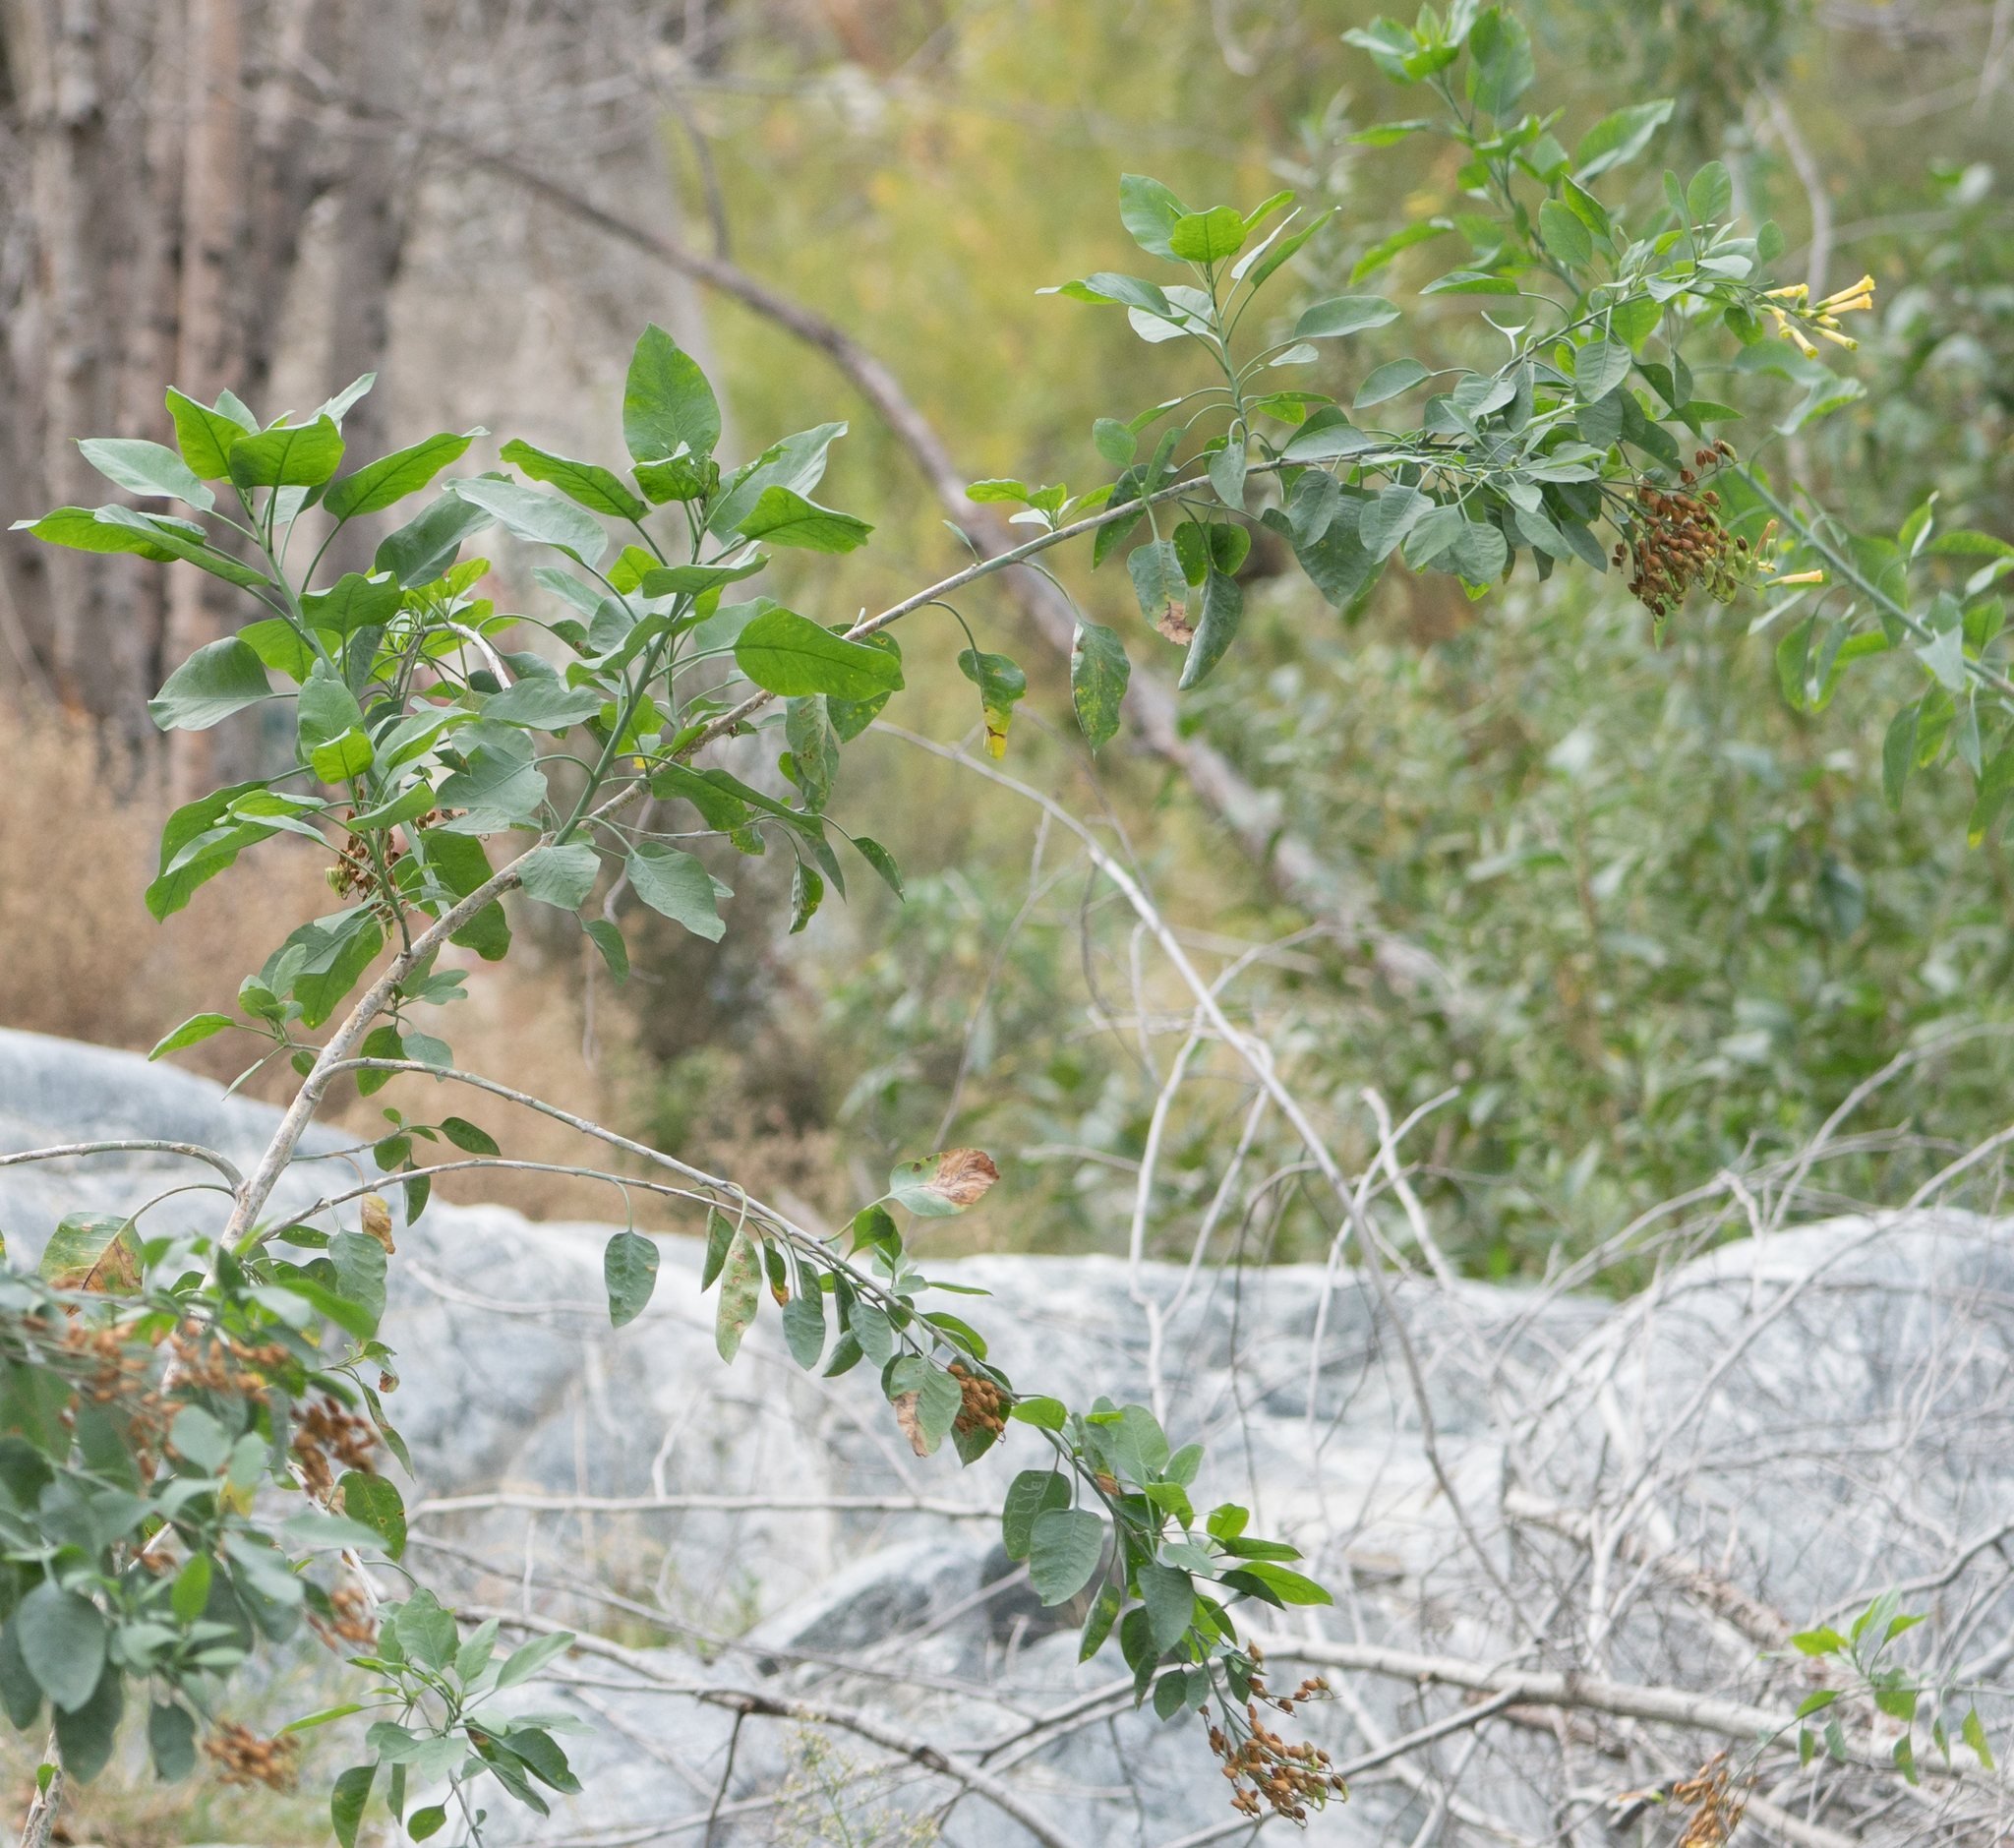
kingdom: Plantae
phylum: Tracheophyta
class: Magnoliopsida
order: Solanales
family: Solanaceae
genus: Nicotiana
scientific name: Nicotiana glauca
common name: Tree tobacco
